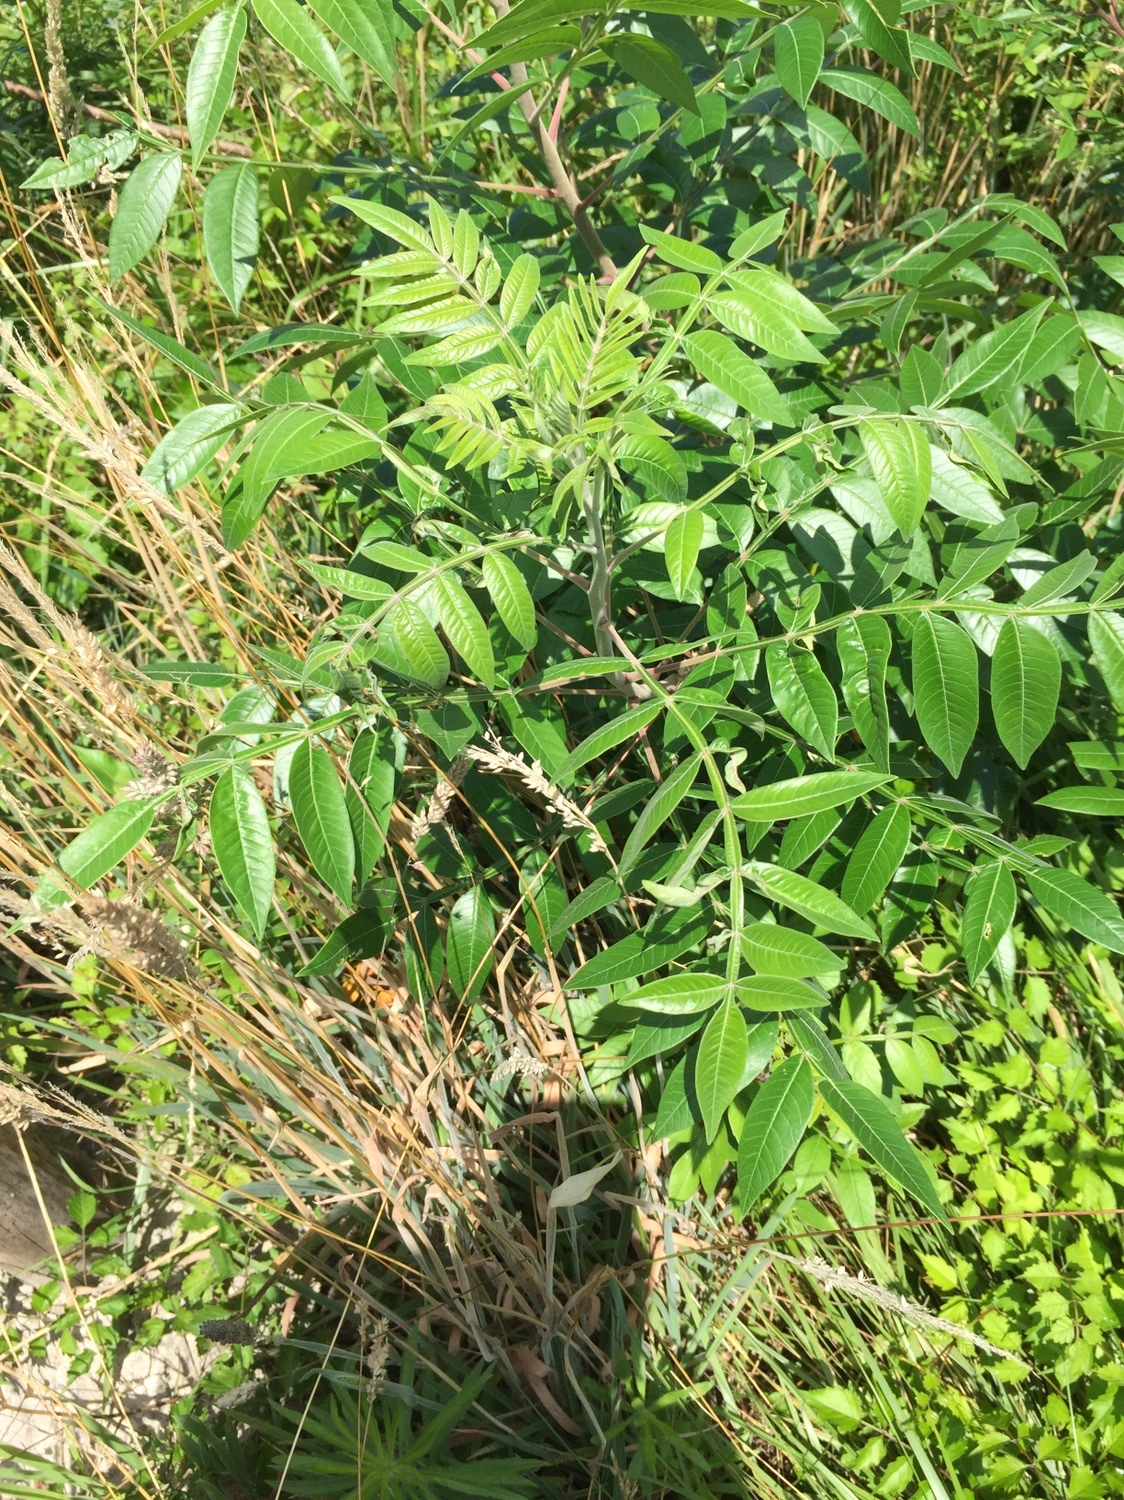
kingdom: Plantae
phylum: Tracheophyta
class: Magnoliopsida
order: Sapindales
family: Anacardiaceae
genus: Rhus
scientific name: Rhus copallina
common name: Shining sumac
